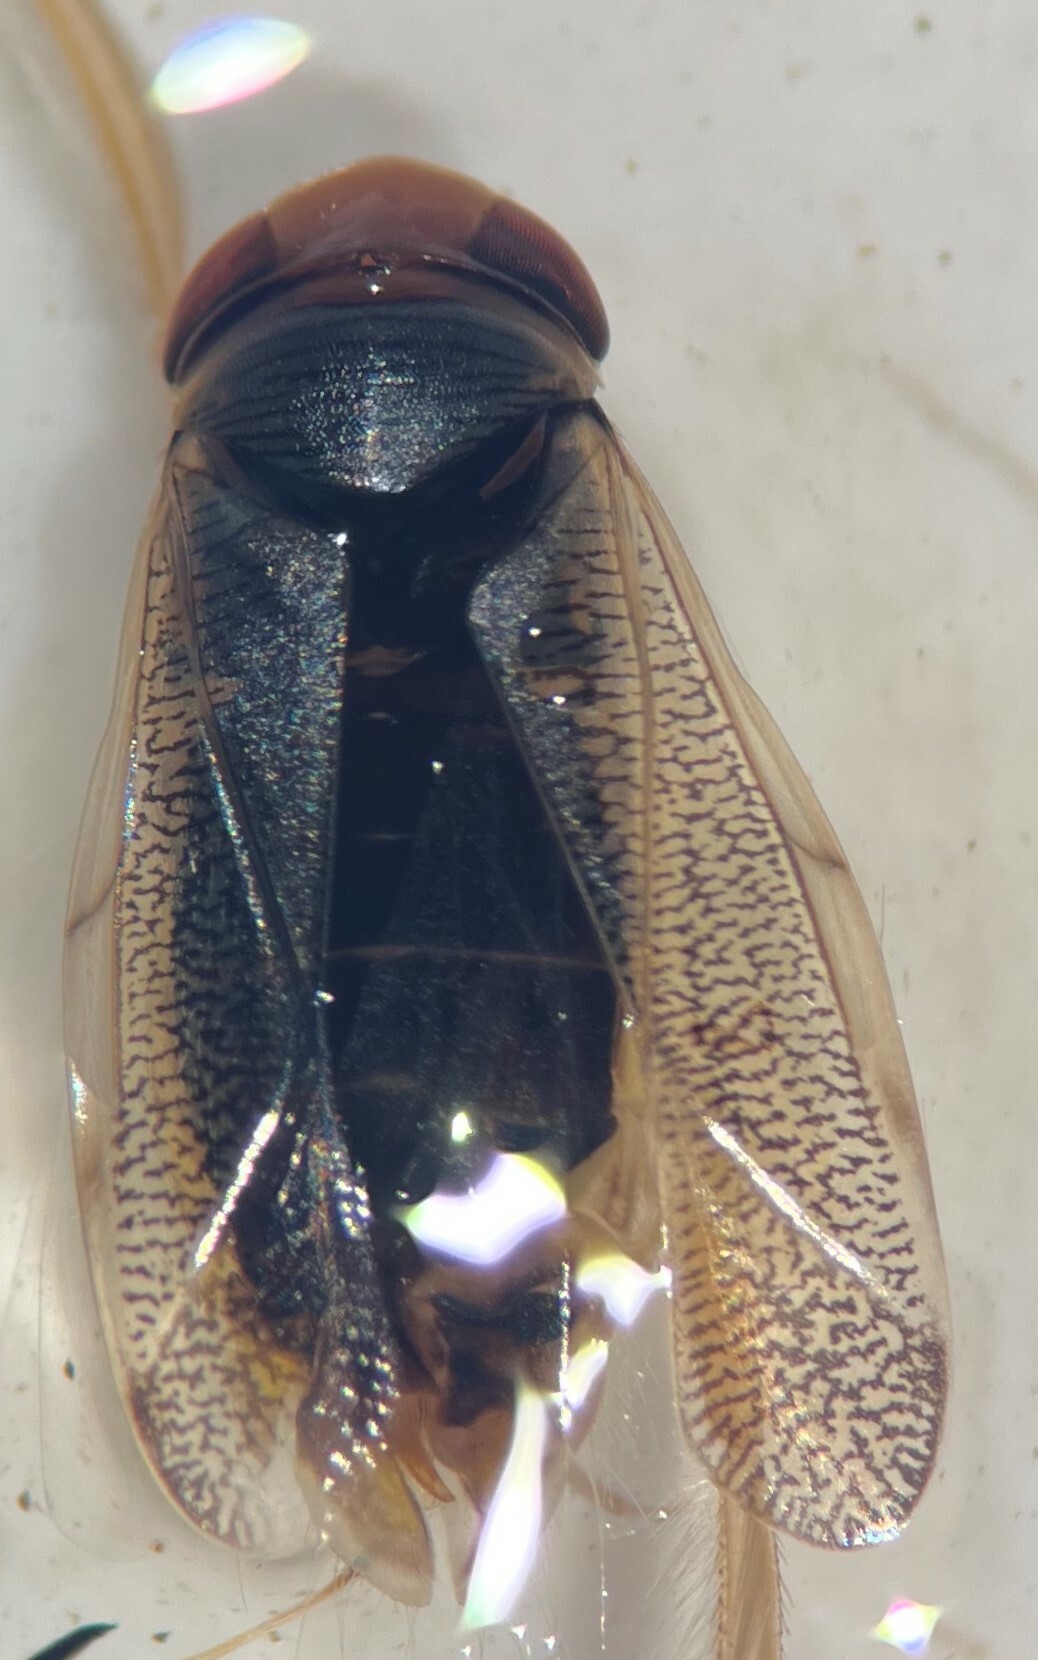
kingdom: Animalia
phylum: Arthropoda
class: Insecta
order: Hemiptera
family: Corixidae
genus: Cenocorixa
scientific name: Cenocorixa utahensis
